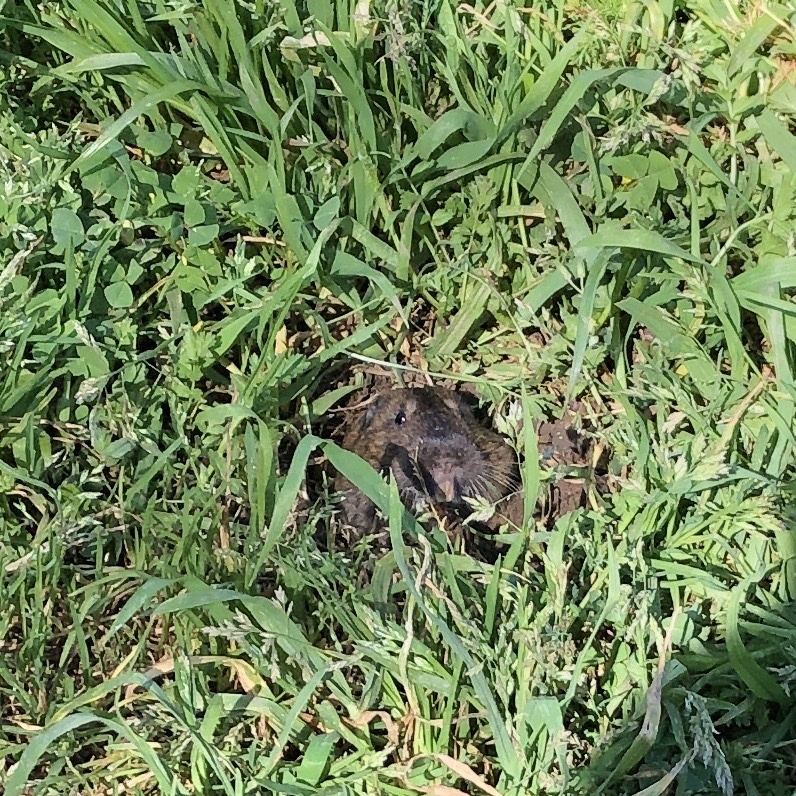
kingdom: Animalia
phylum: Chordata
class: Mammalia
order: Rodentia
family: Geomyidae
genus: Thomomys
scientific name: Thomomys bottae
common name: Botta's pocket gopher
